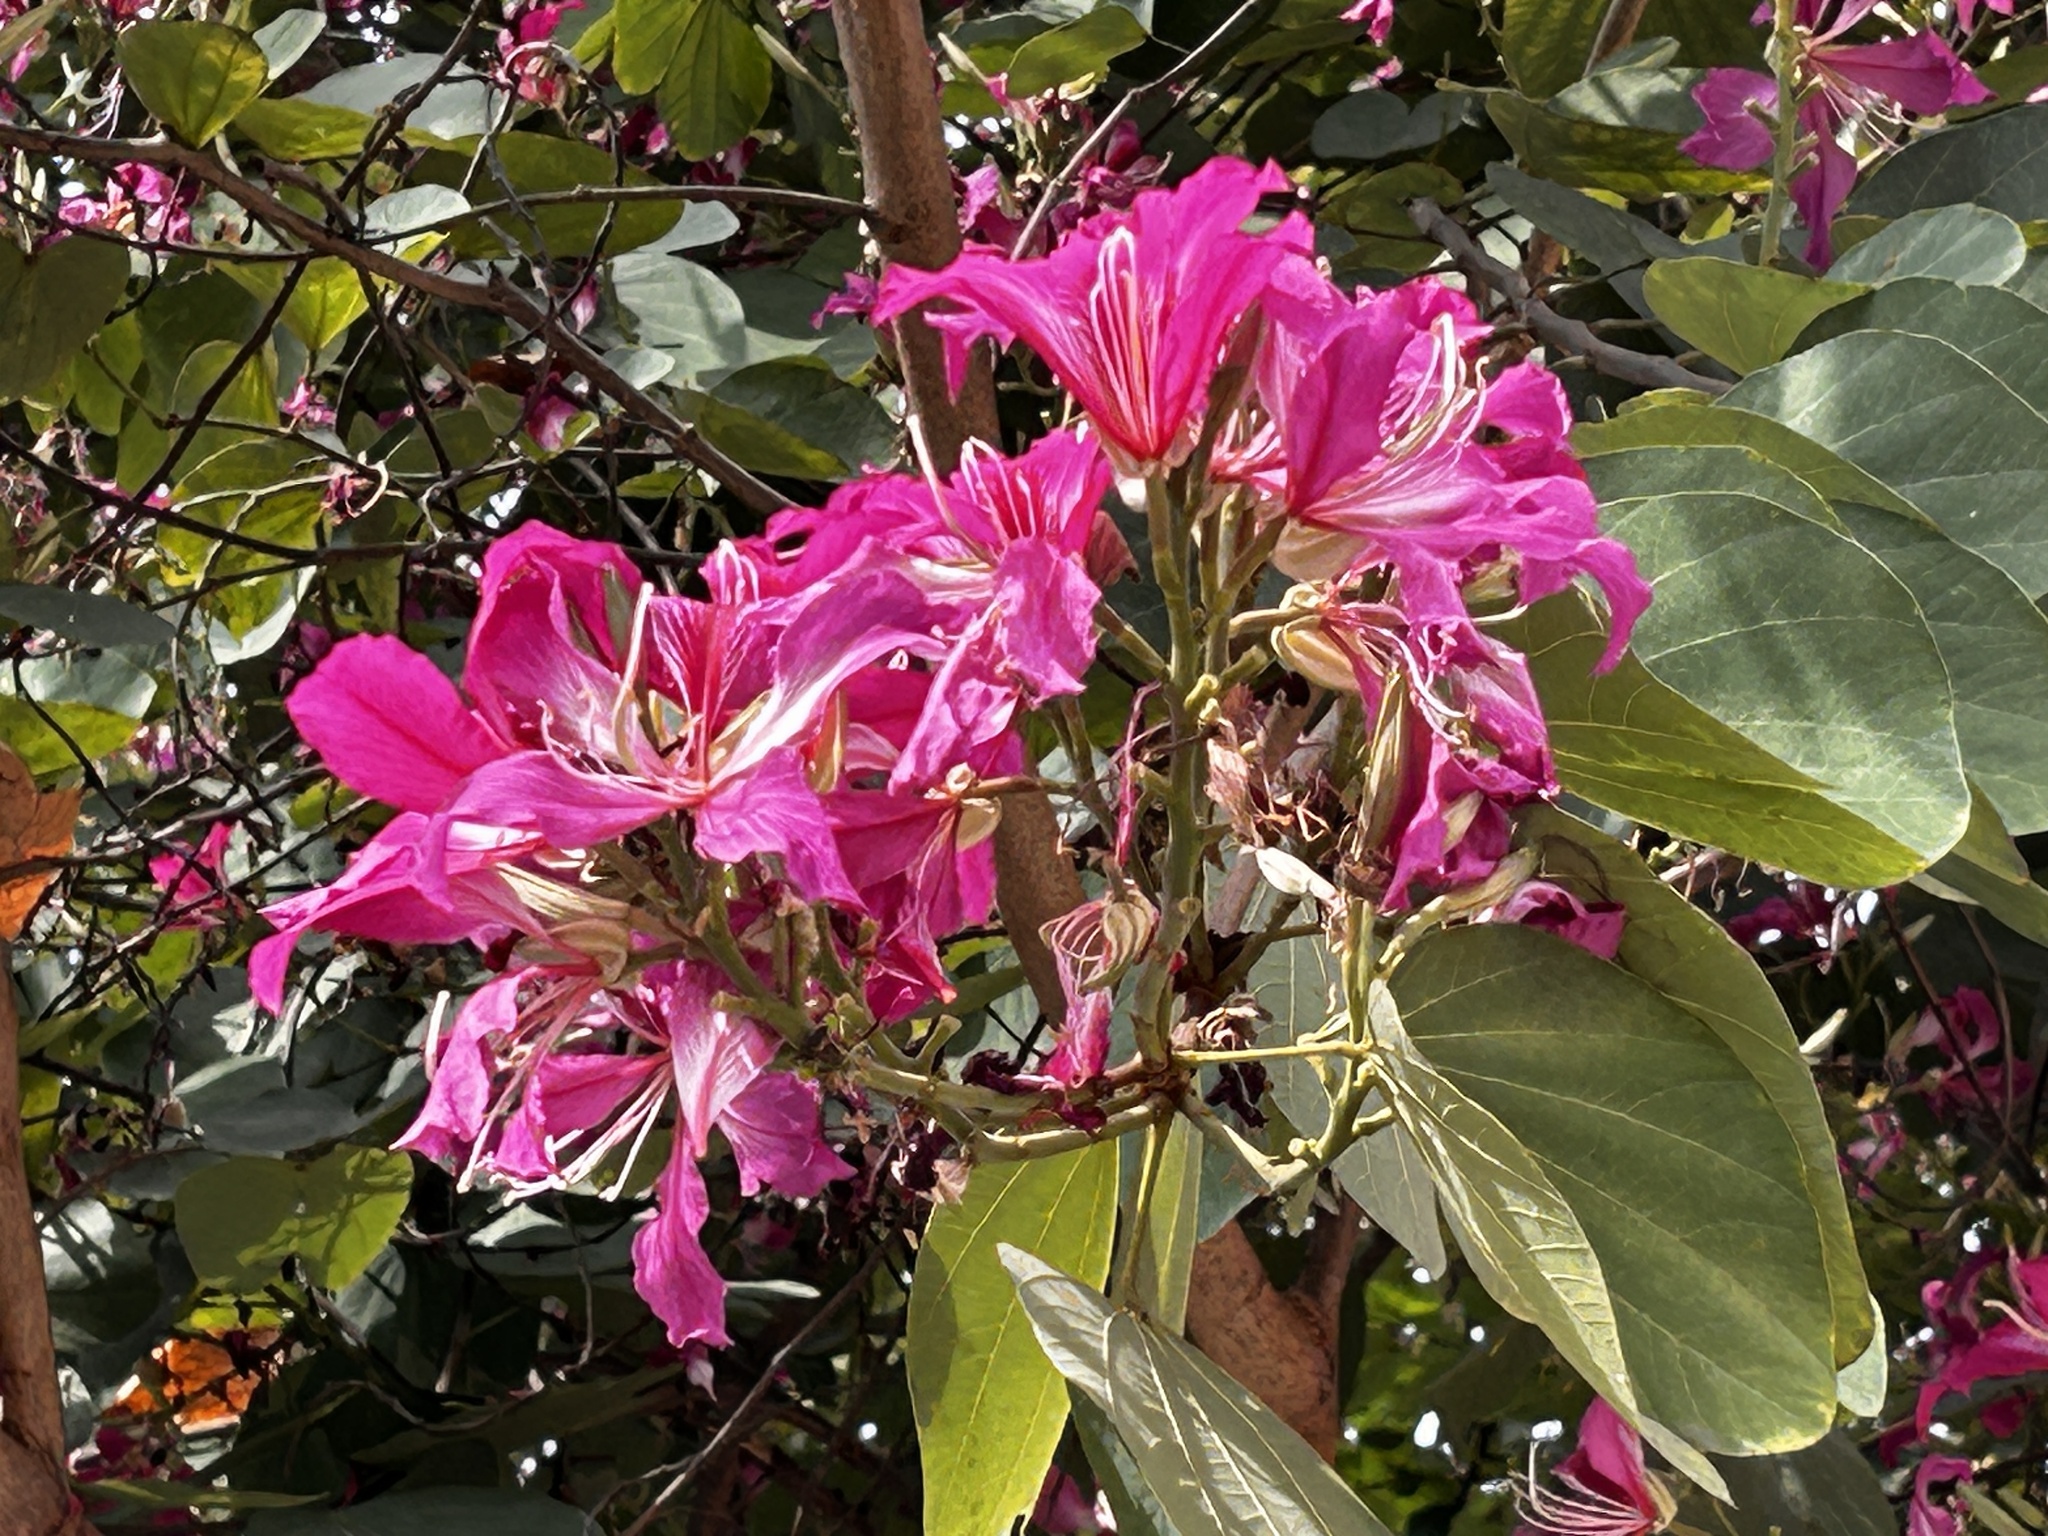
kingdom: Plantae
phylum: Tracheophyta
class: Magnoliopsida
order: Fabales
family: Fabaceae
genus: Bauhinia
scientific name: Bauhinia blakeana
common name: Bauhinia
